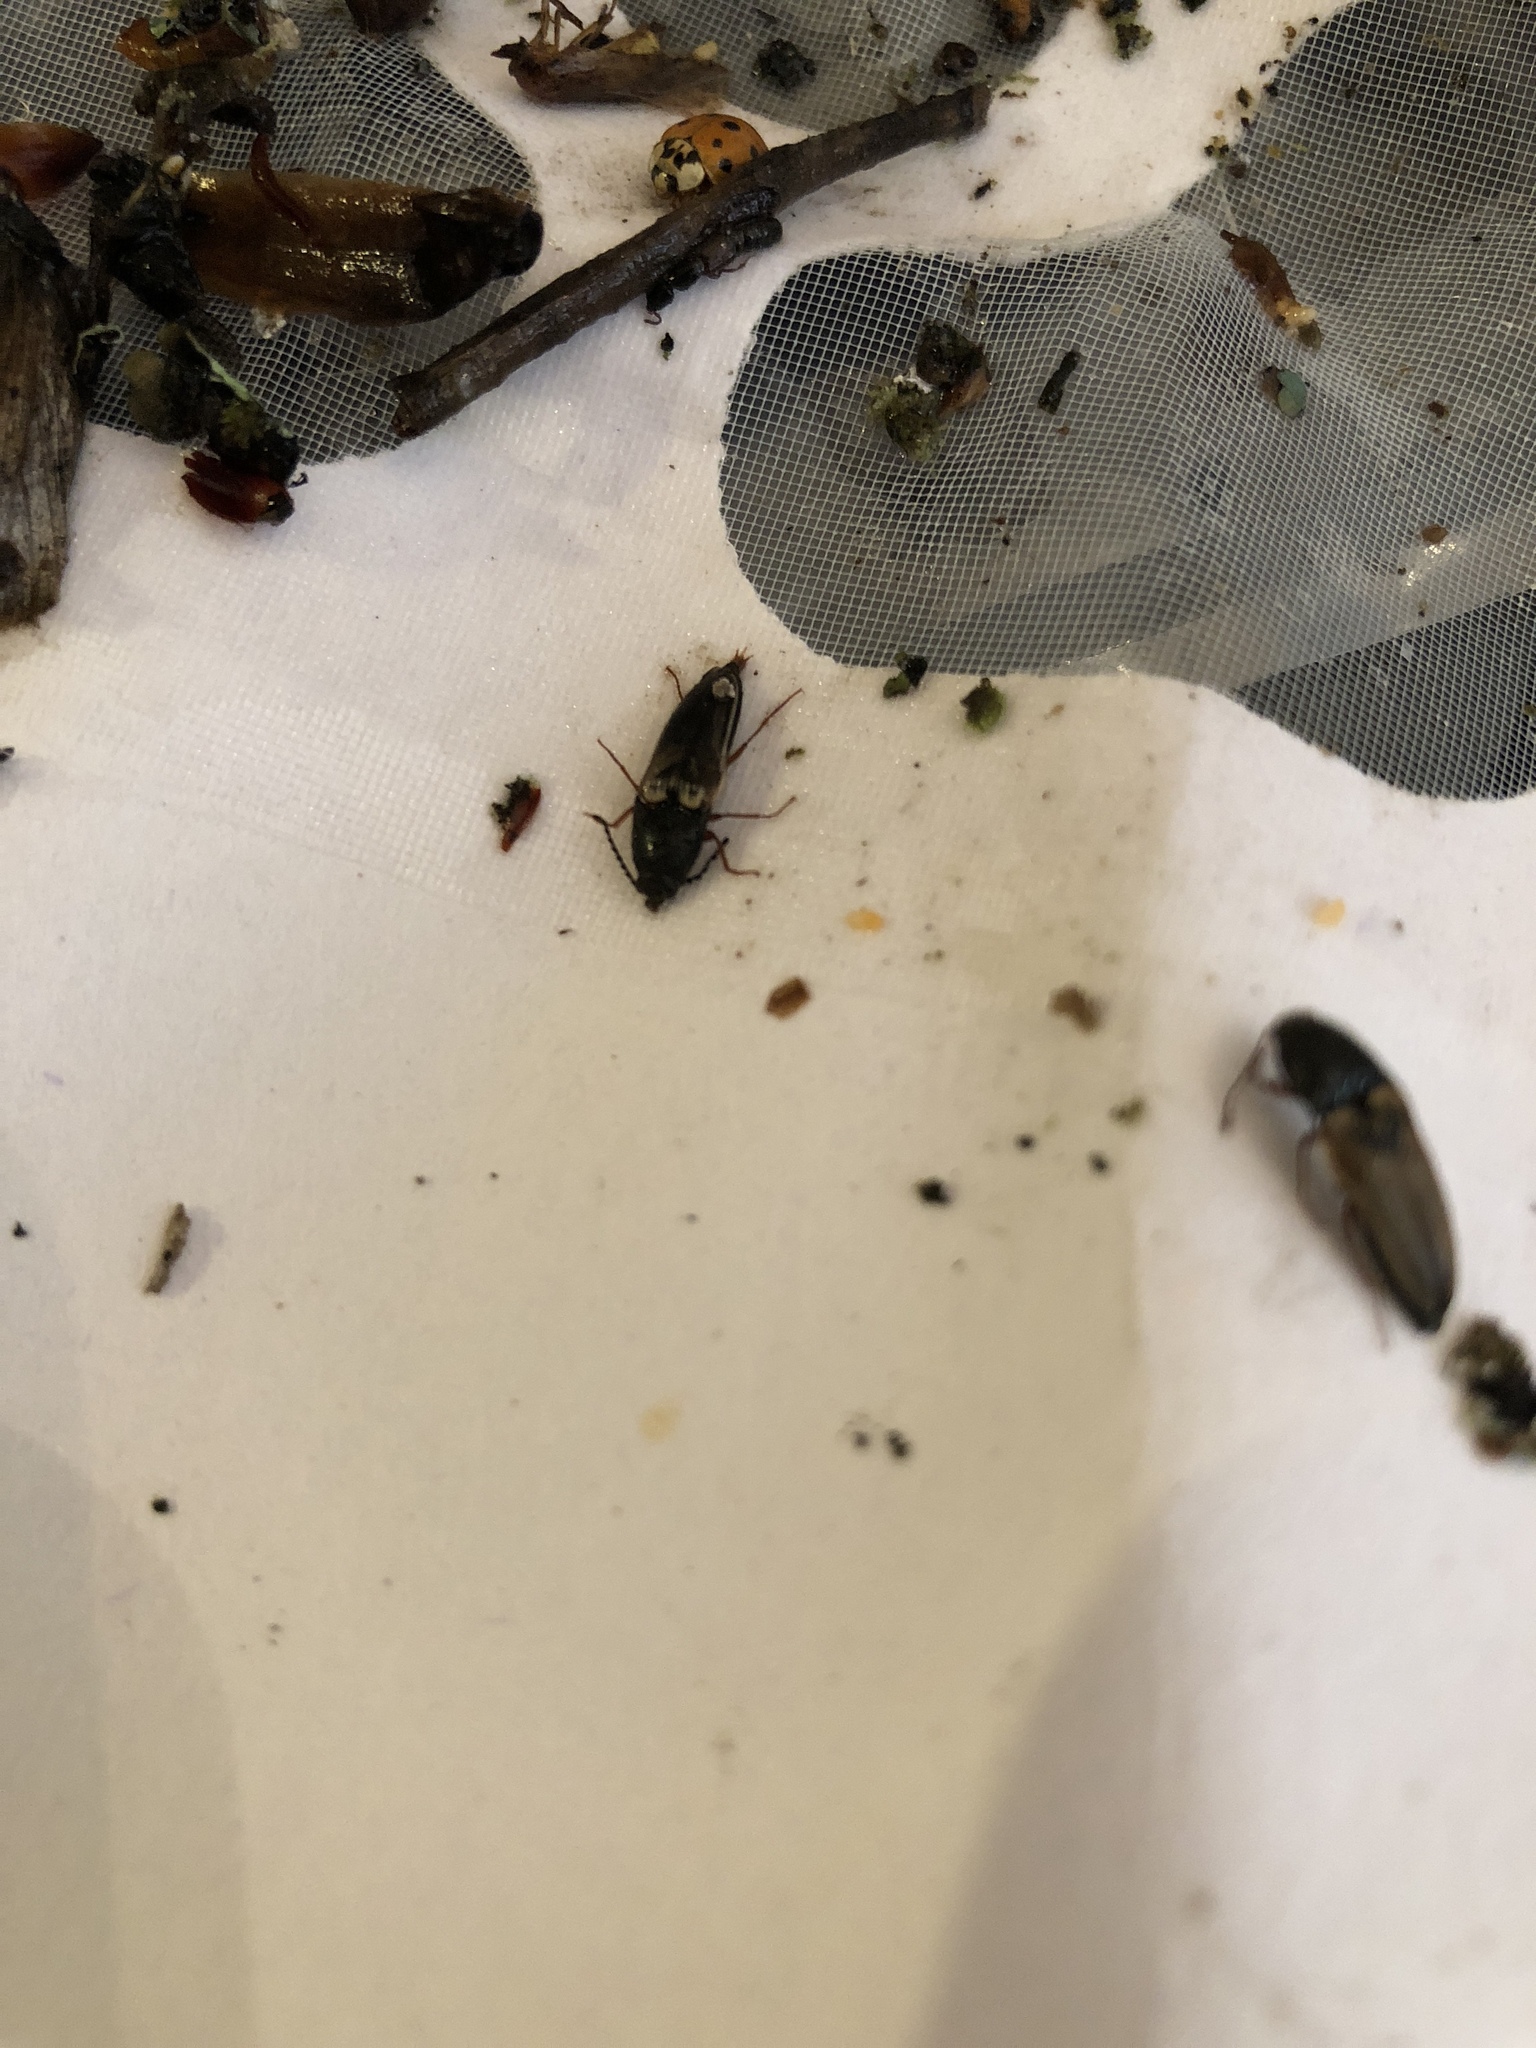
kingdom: Animalia
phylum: Arthropoda
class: Insecta
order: Coleoptera
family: Elateridae
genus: Ampedus
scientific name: Ampedus nigricollis
